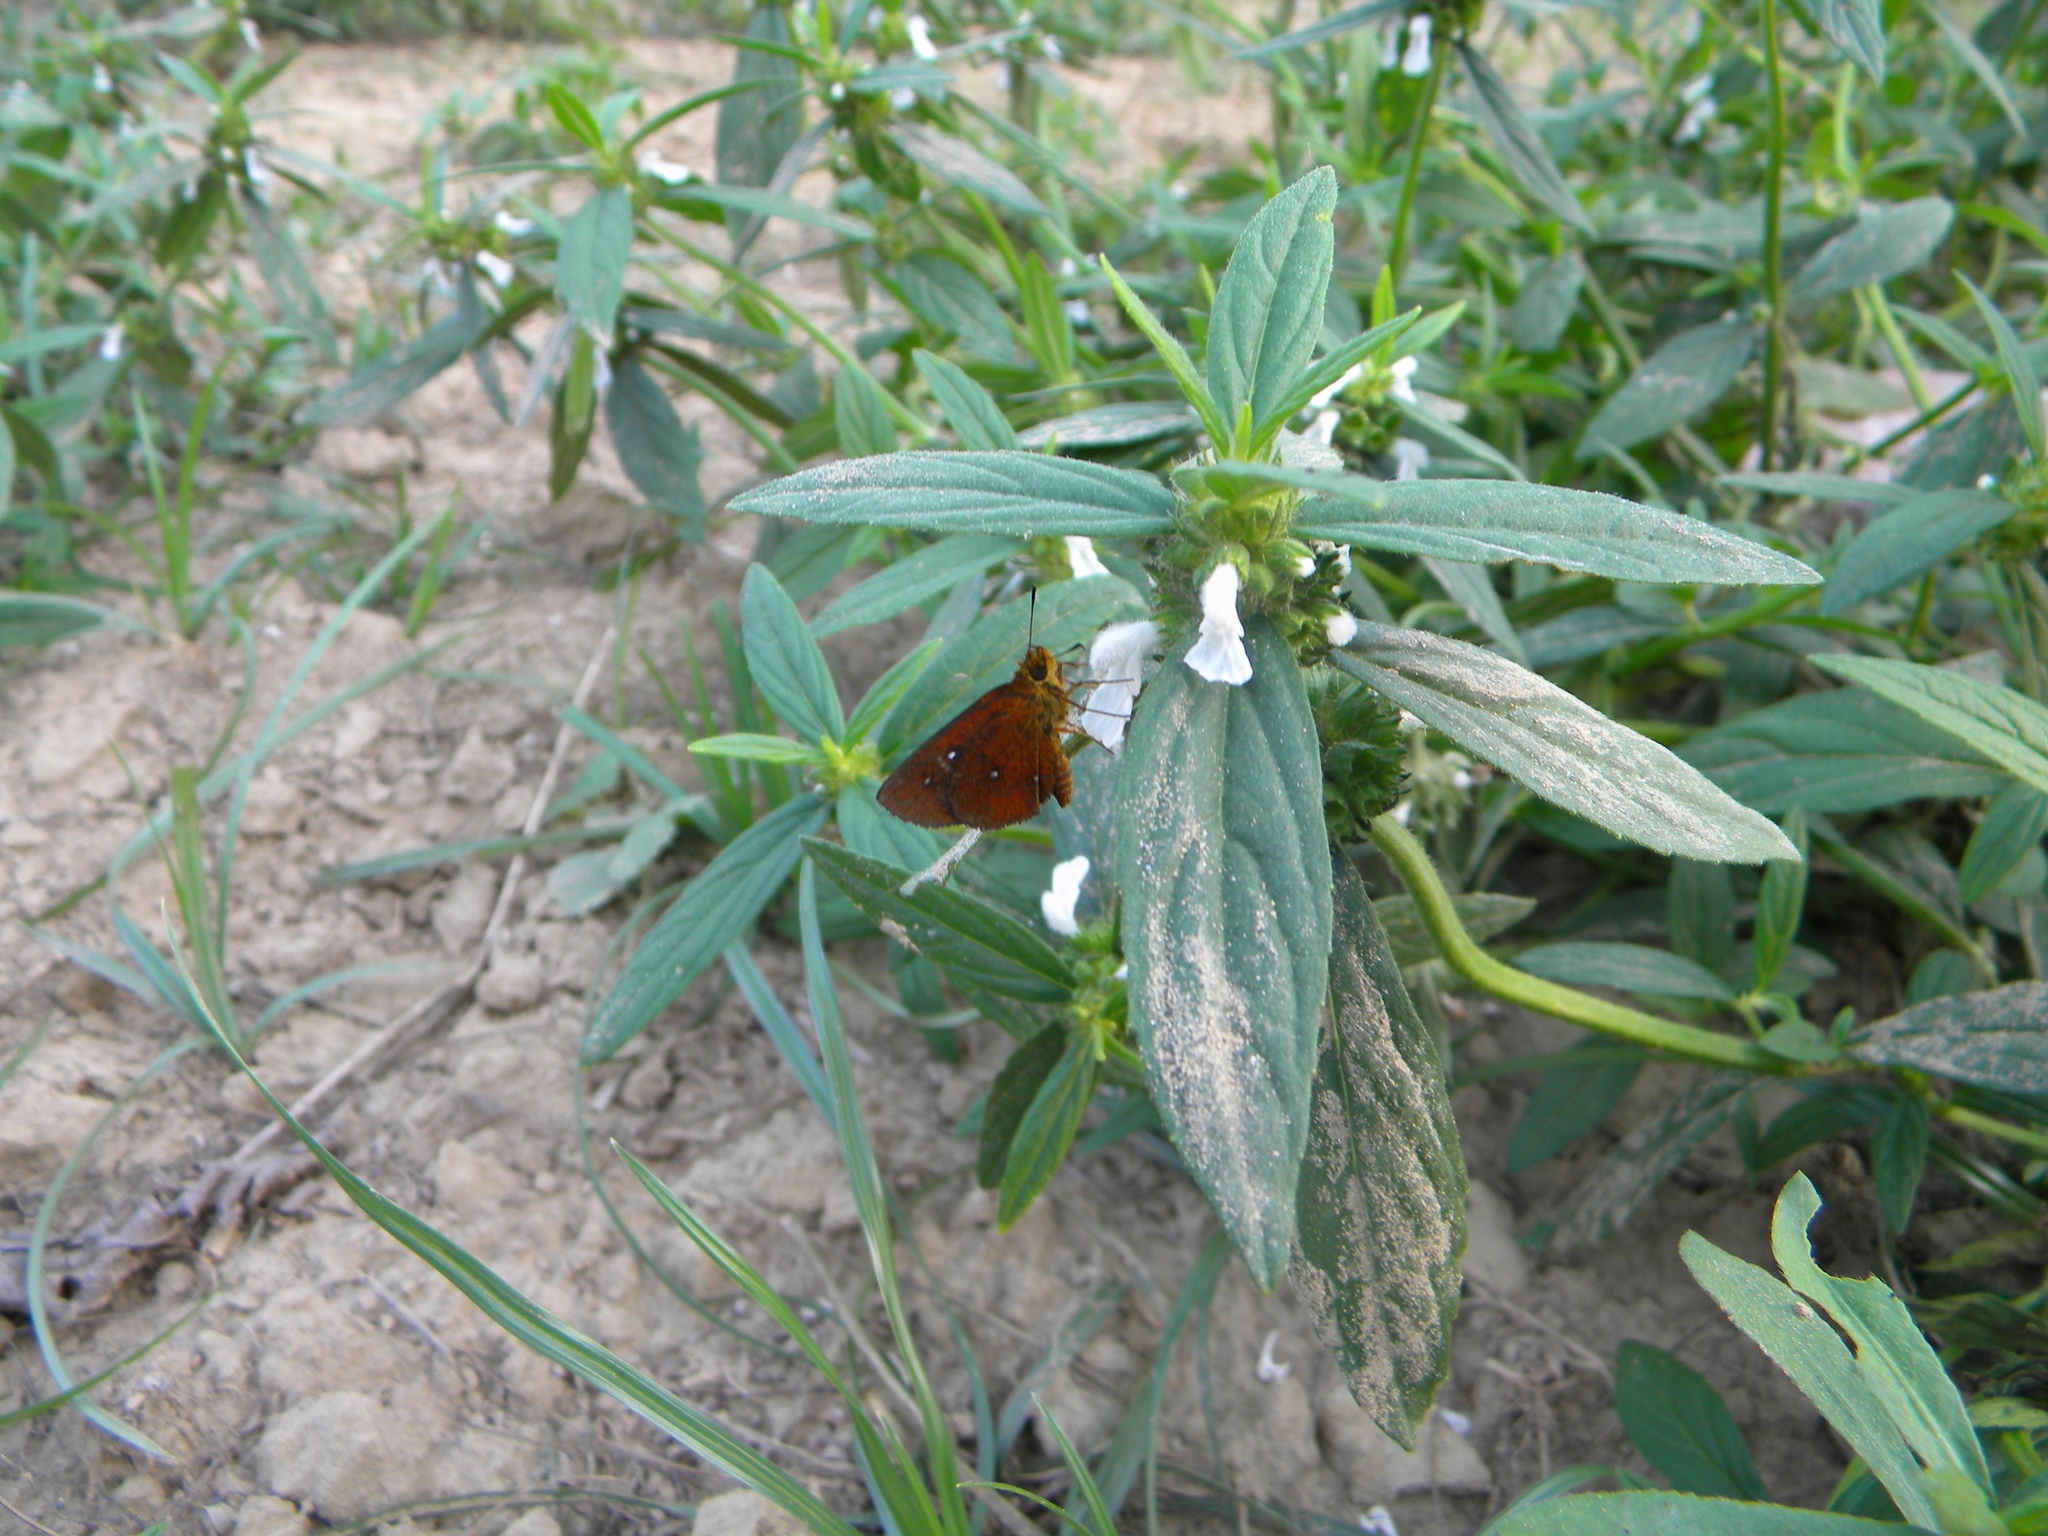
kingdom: Animalia
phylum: Arthropoda
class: Insecta
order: Lepidoptera
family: Hesperiidae
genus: Iambrix
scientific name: Iambrix salsala
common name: Chestnut bob
